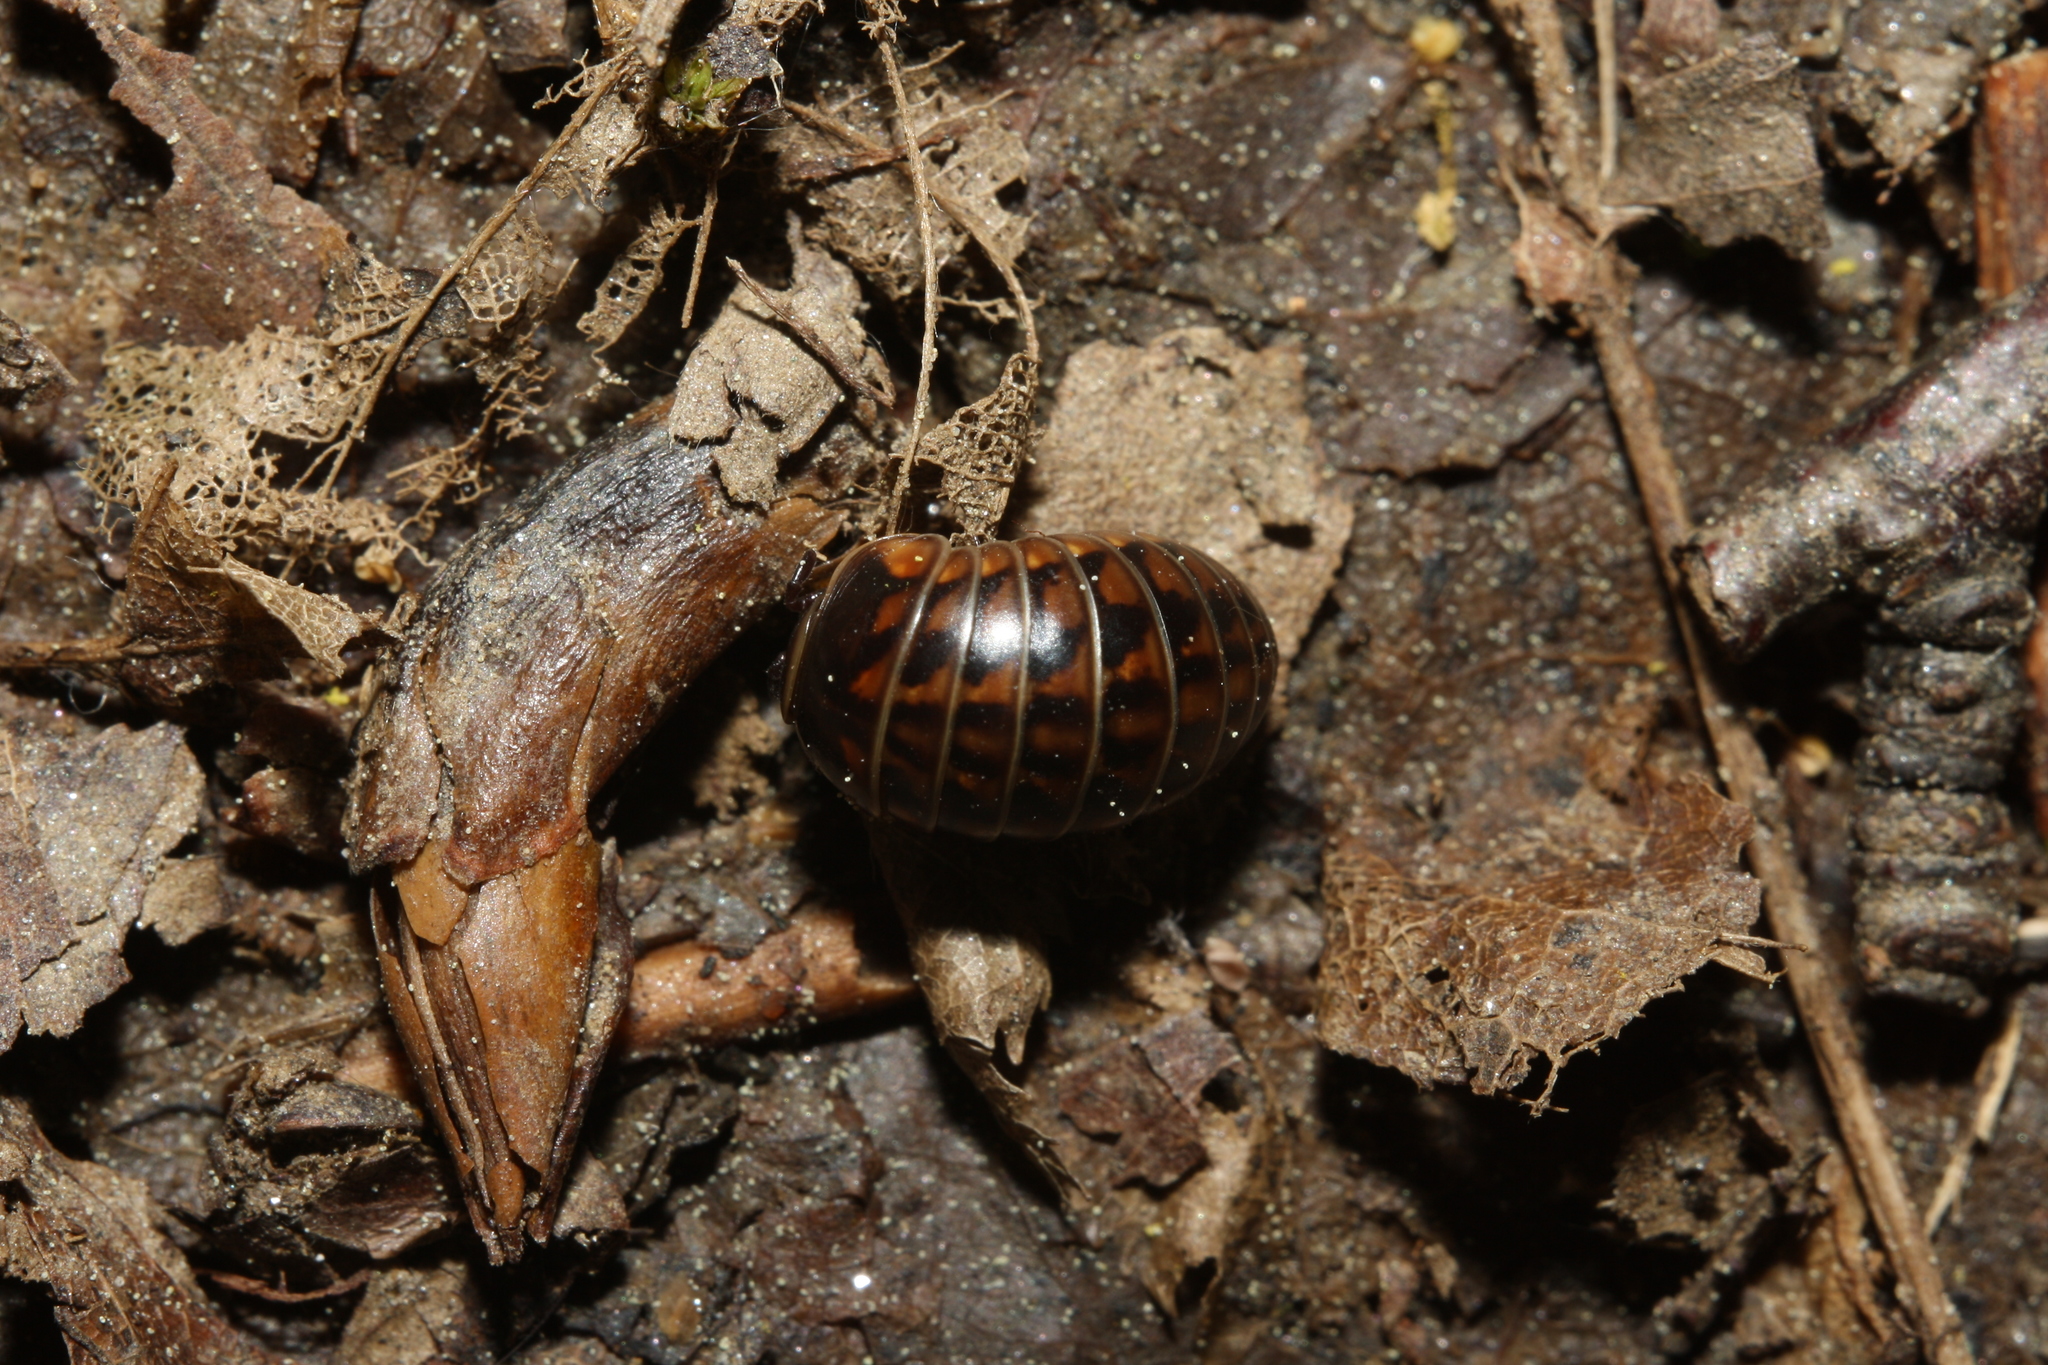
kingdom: Animalia
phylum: Arthropoda
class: Diplopoda
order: Glomerida
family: Glomeridae
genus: Glomeris
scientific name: Glomeris hexasticha
